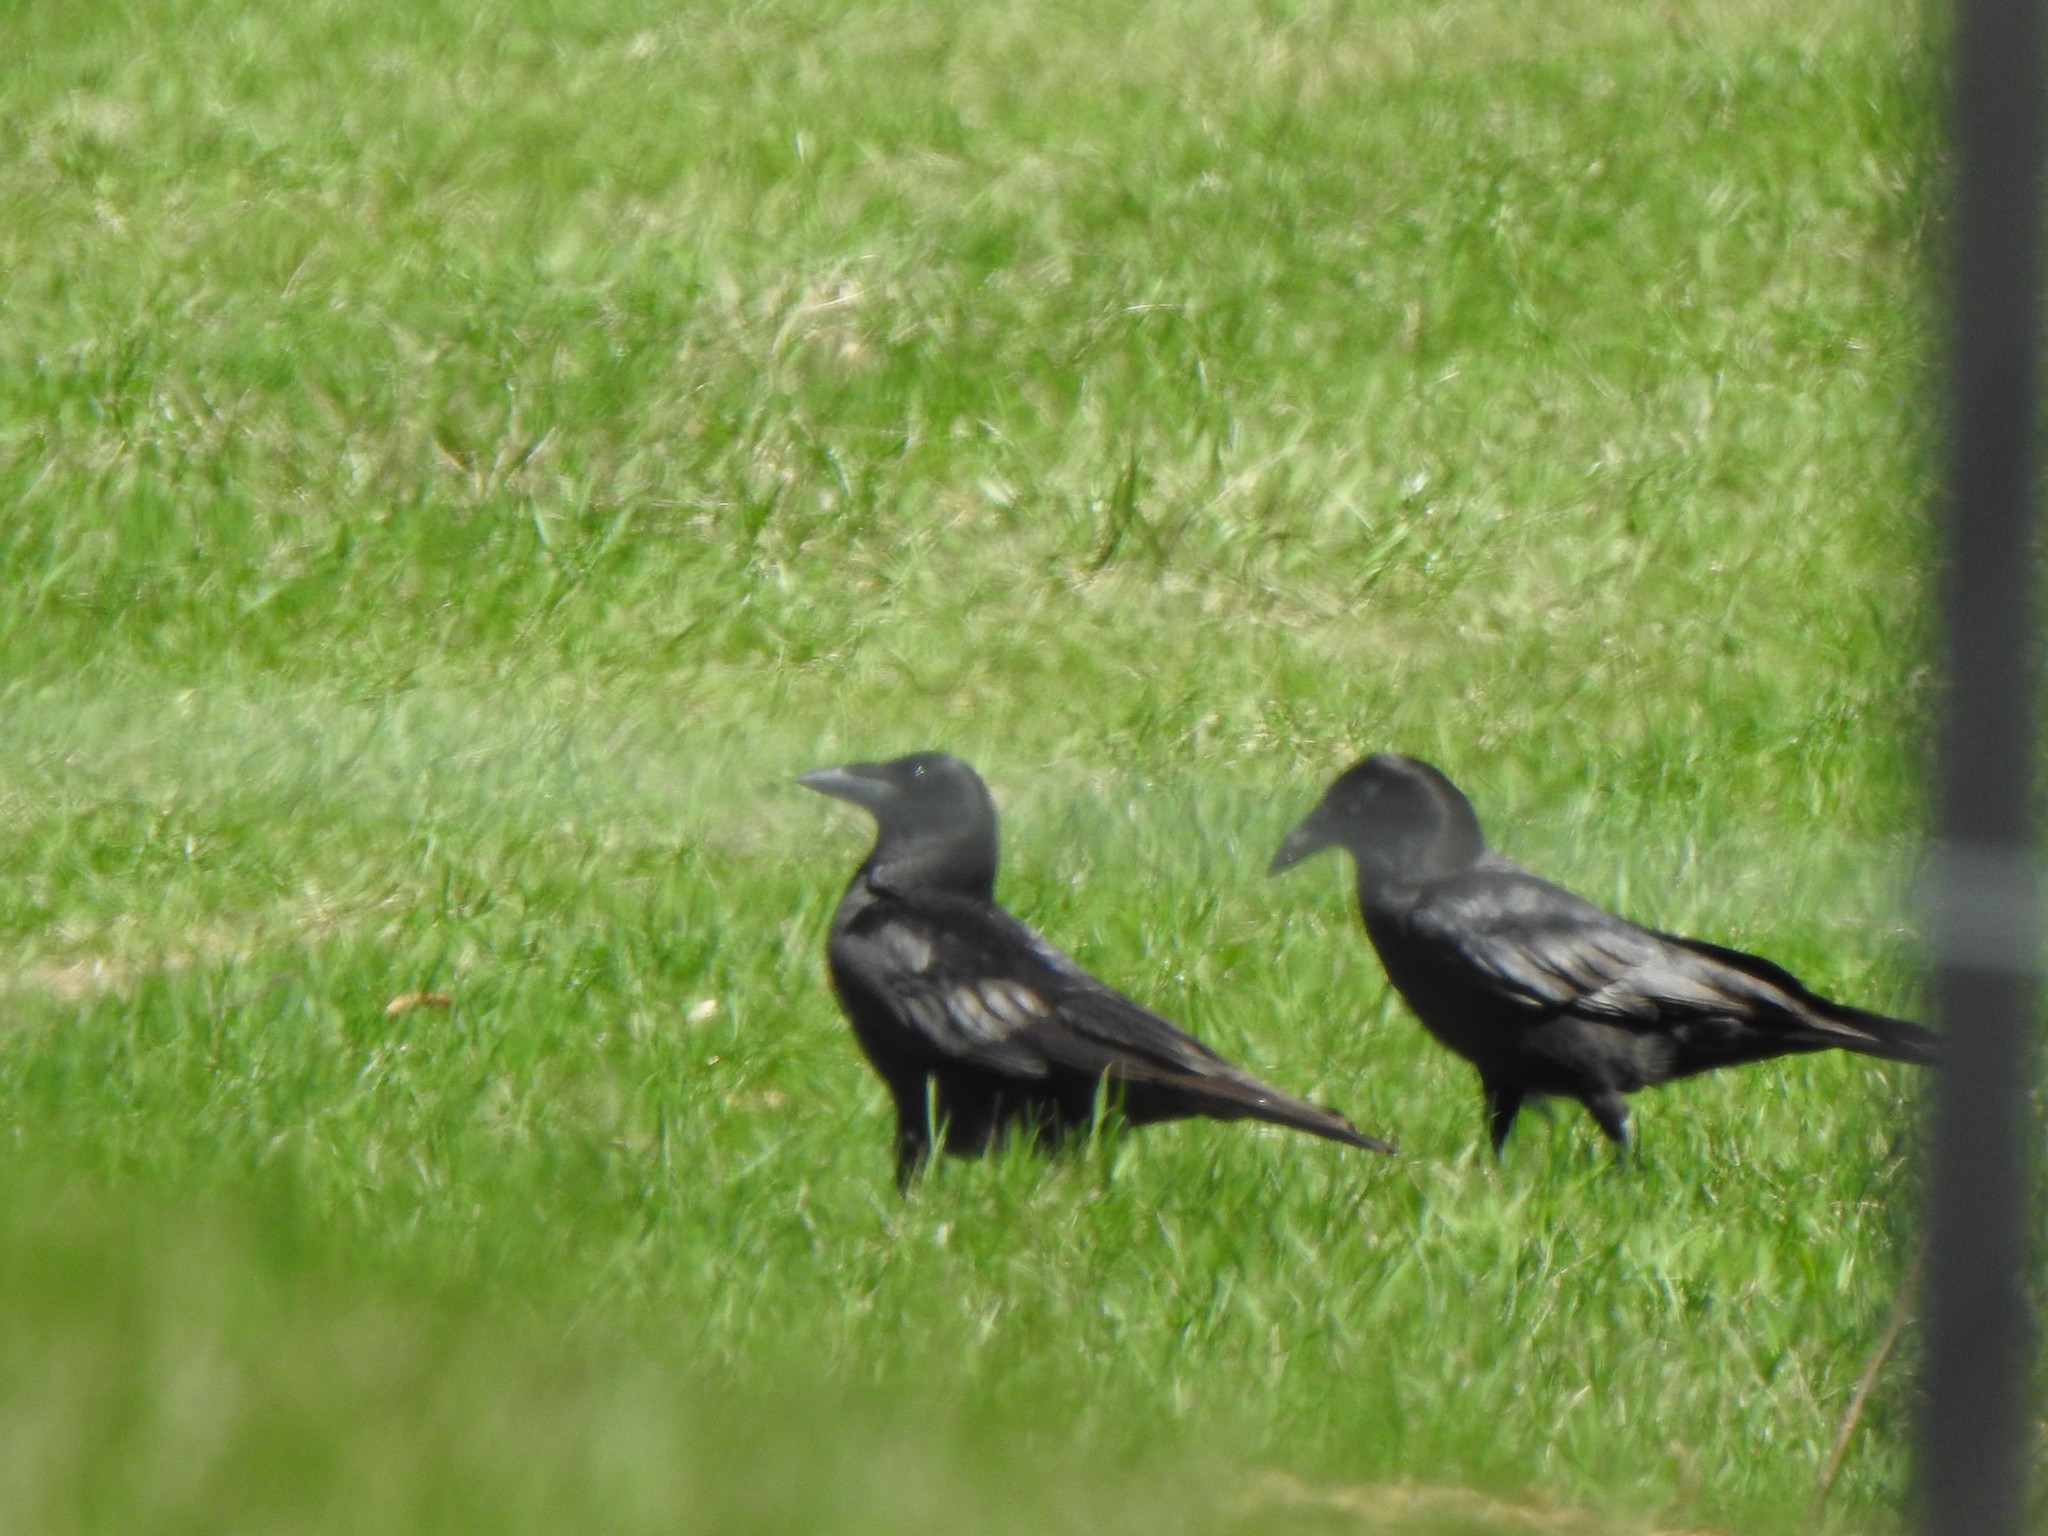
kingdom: Animalia
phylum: Chordata
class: Aves
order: Passeriformes
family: Corvidae
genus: Corvus
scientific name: Corvus brachyrhynchos
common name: American crow
